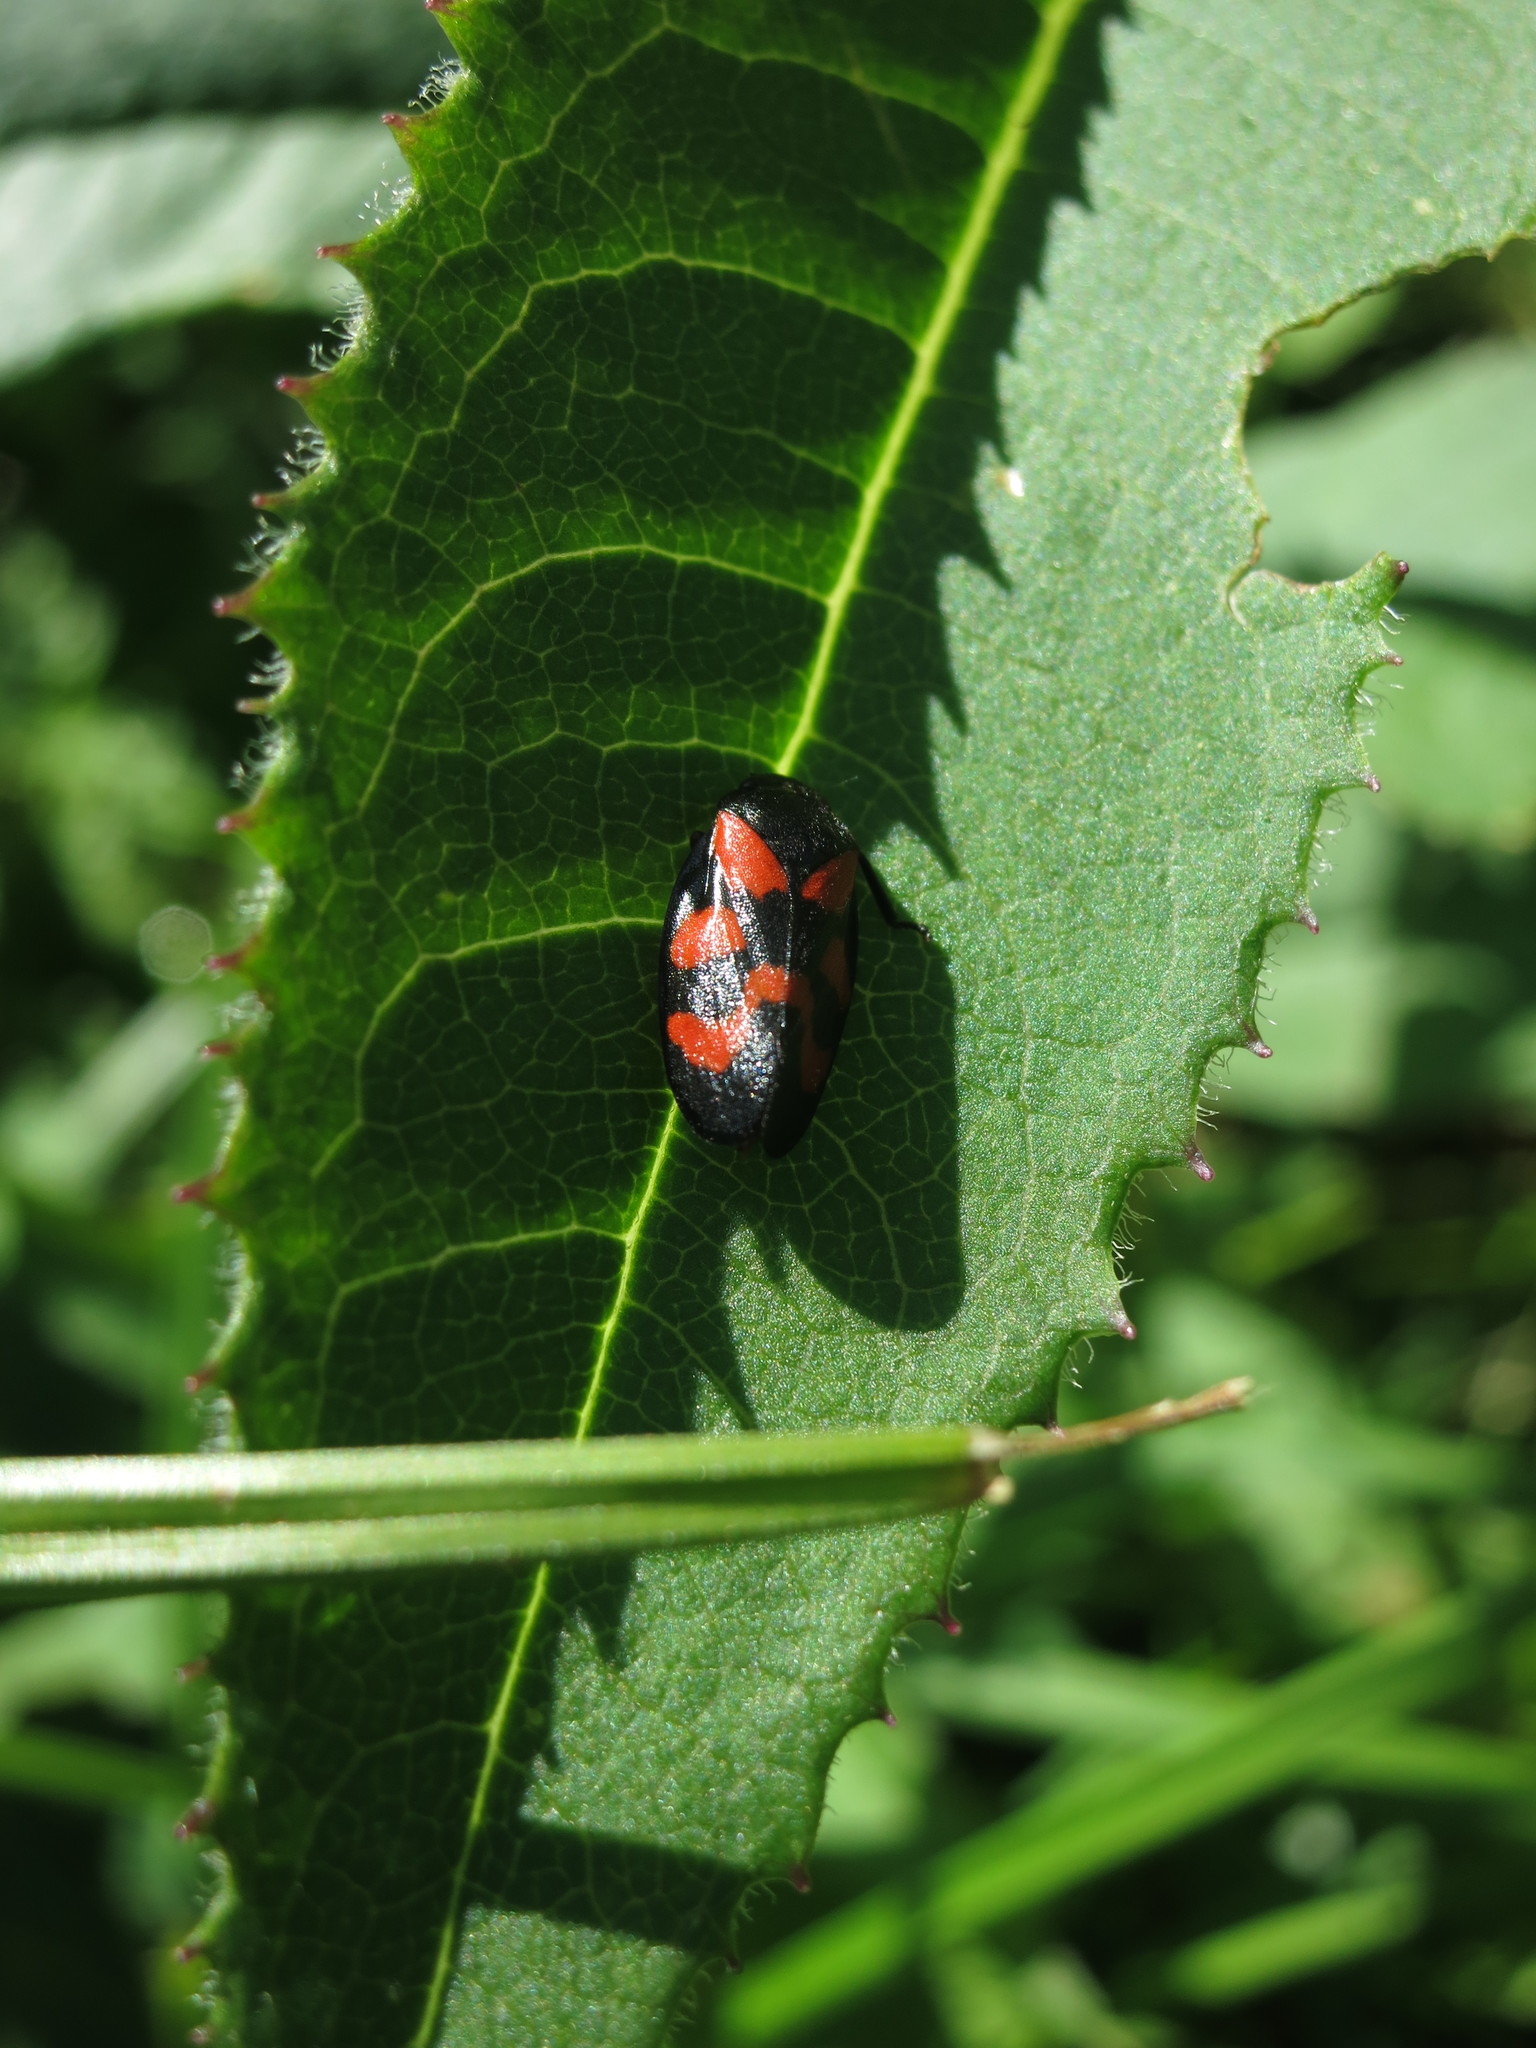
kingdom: Animalia
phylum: Arthropoda
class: Insecta
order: Hemiptera
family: Cercopidae
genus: Cercopis
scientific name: Cercopis vulnerata
